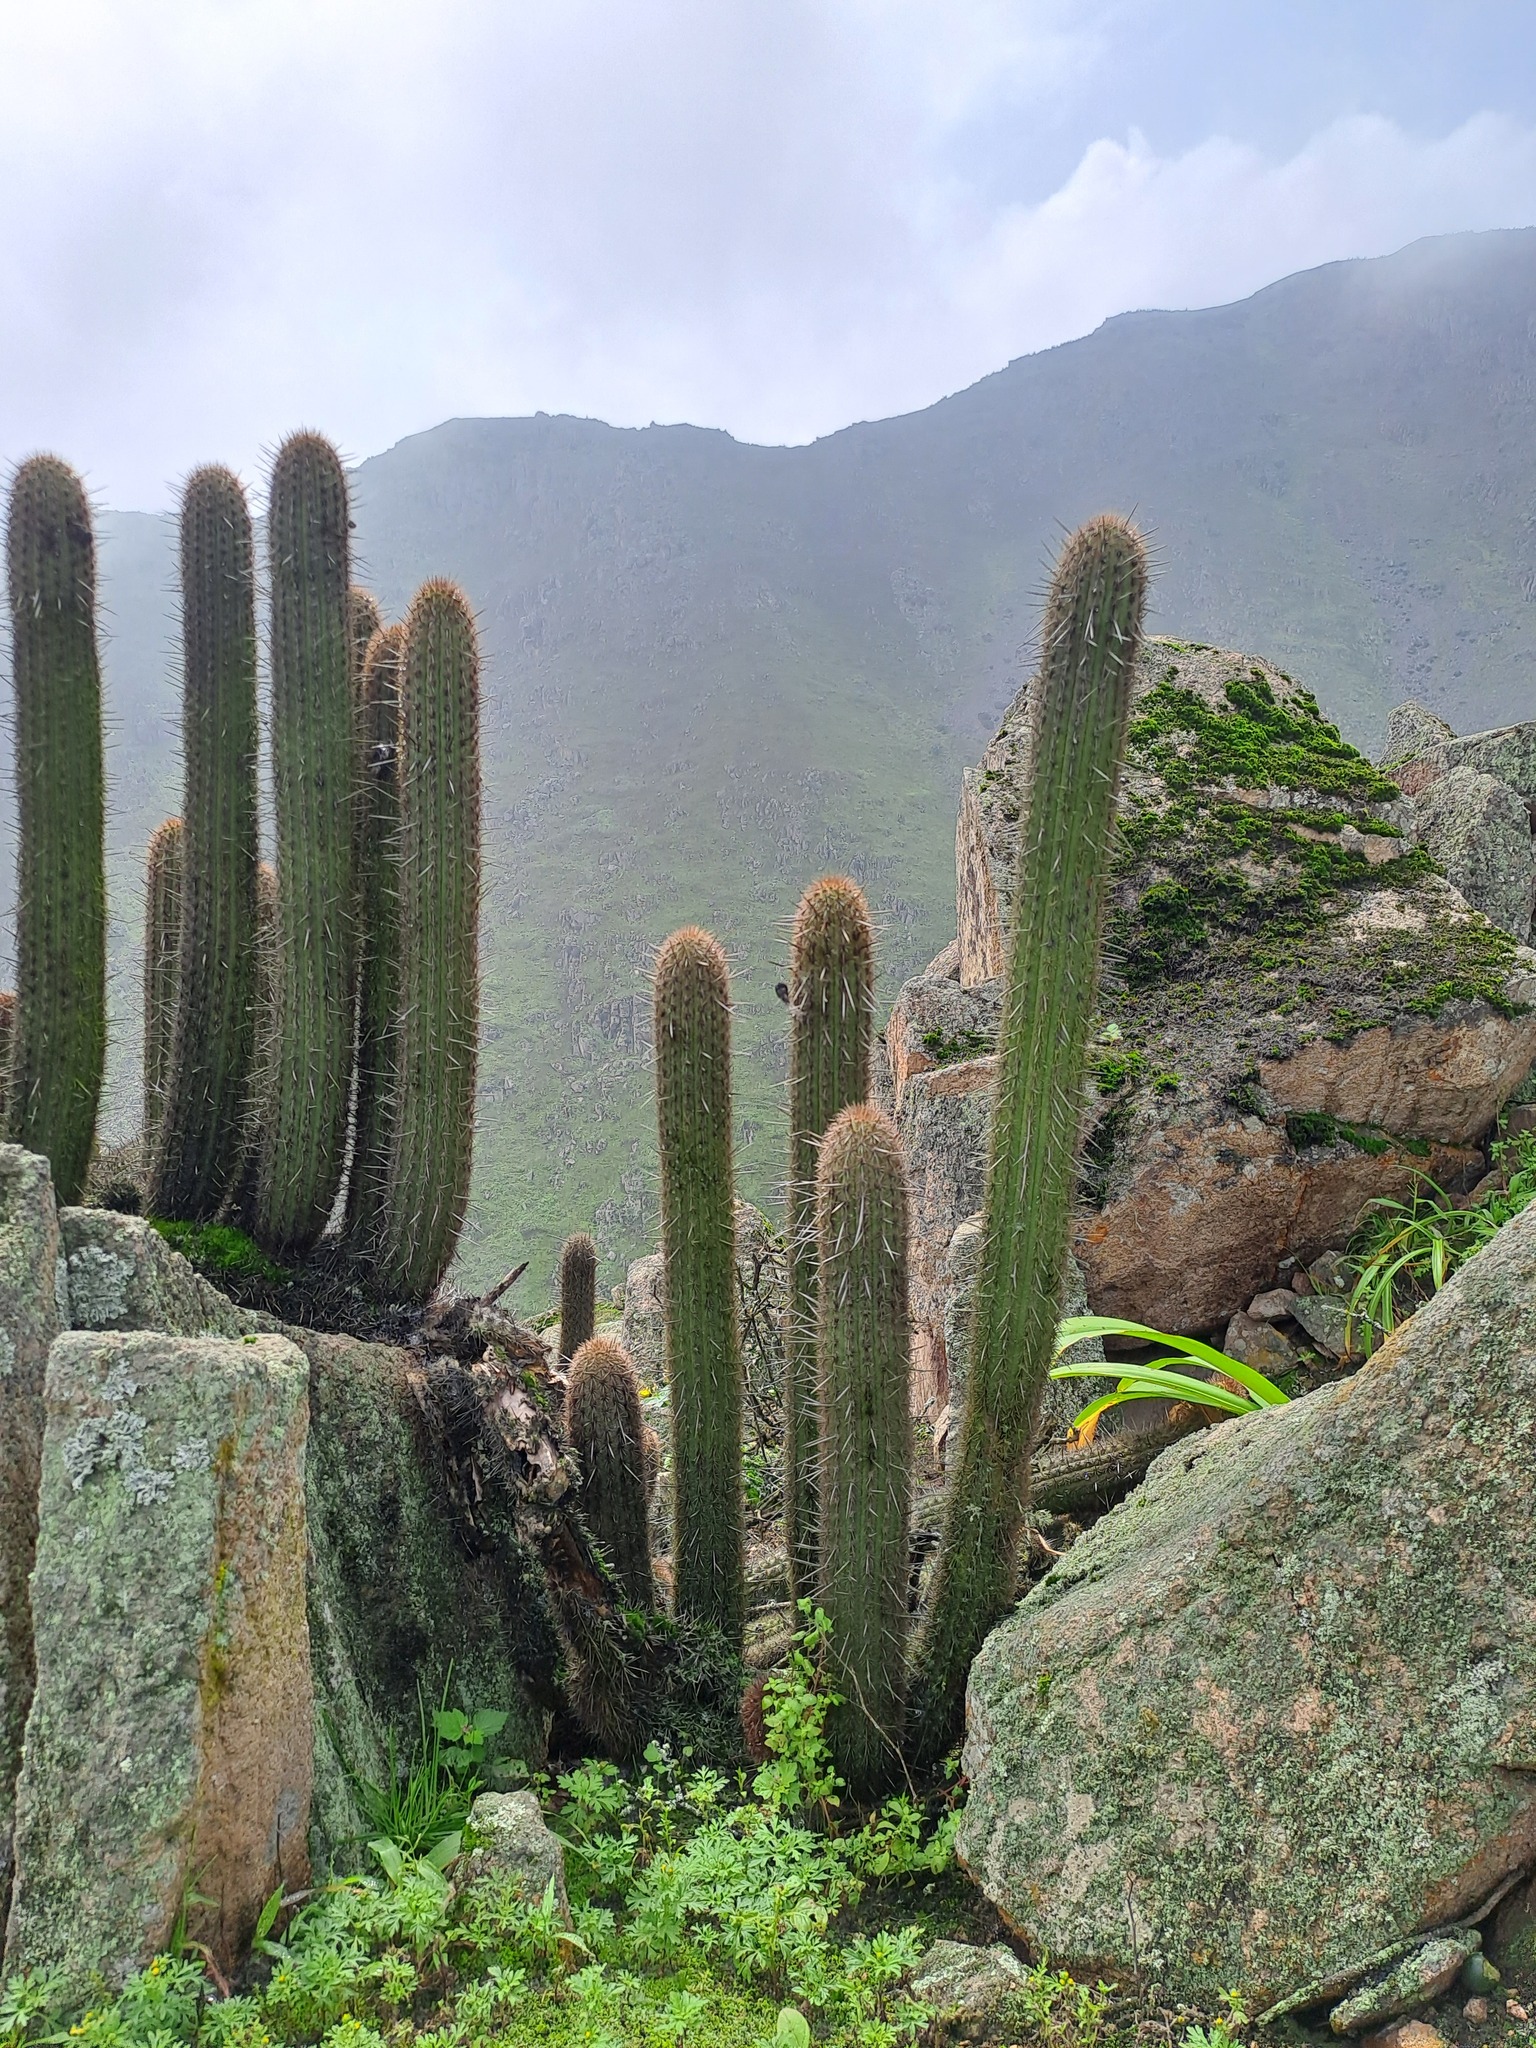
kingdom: Plantae
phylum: Tracheophyta
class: Magnoliopsida
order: Caryophyllales
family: Cactaceae
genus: Haageocereus
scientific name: Haageocereus acranthus
